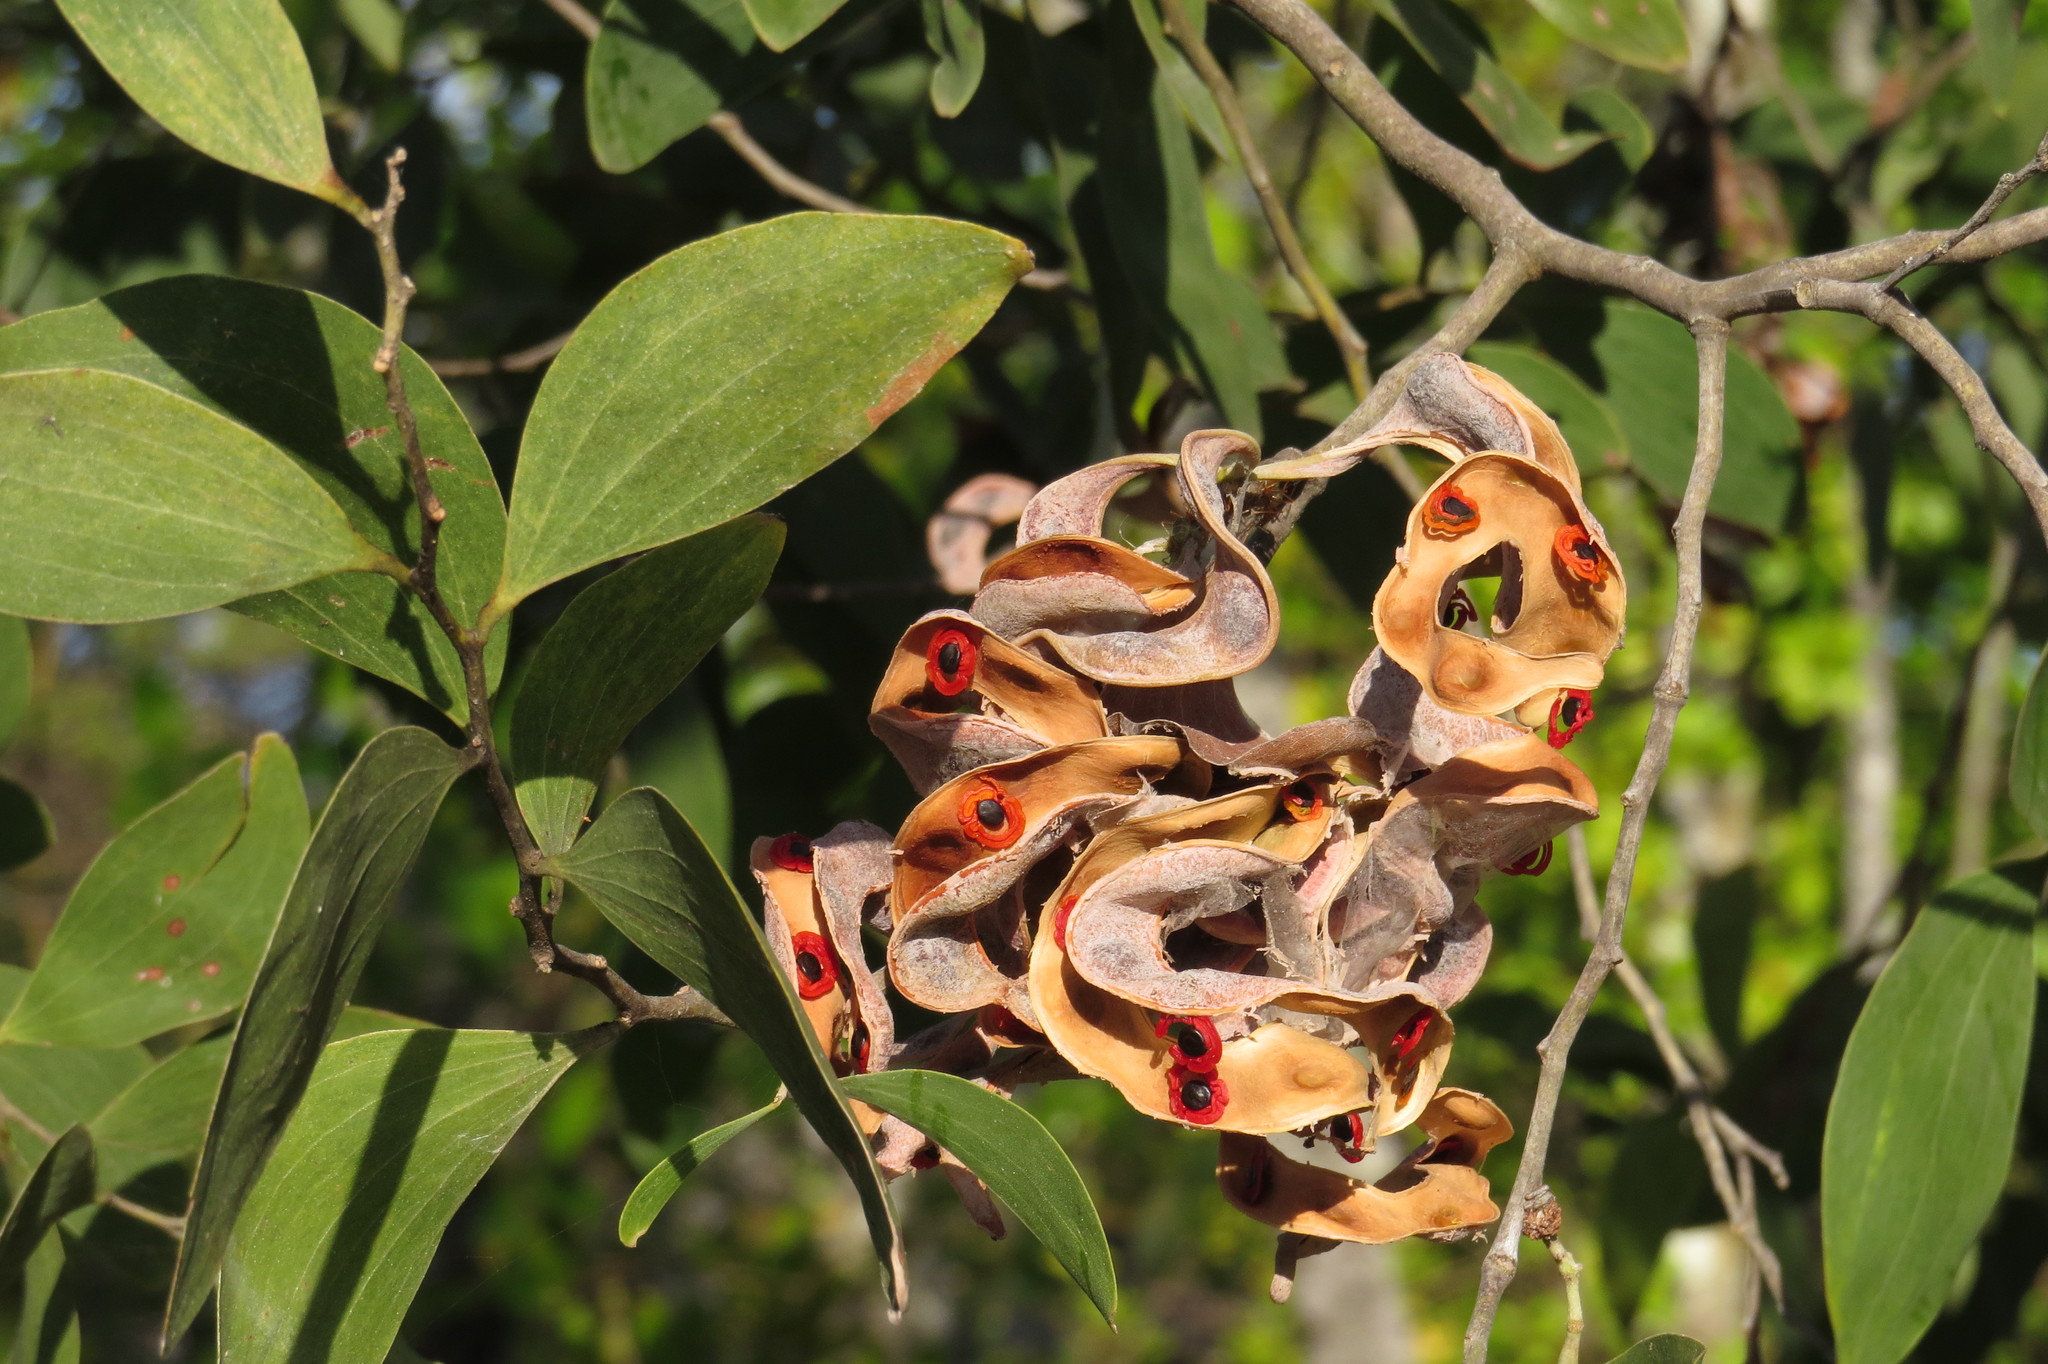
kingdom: Plantae
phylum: Tracheophyta
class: Magnoliopsida
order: Fabales
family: Fabaceae
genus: Acacia
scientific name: Acacia oraria
